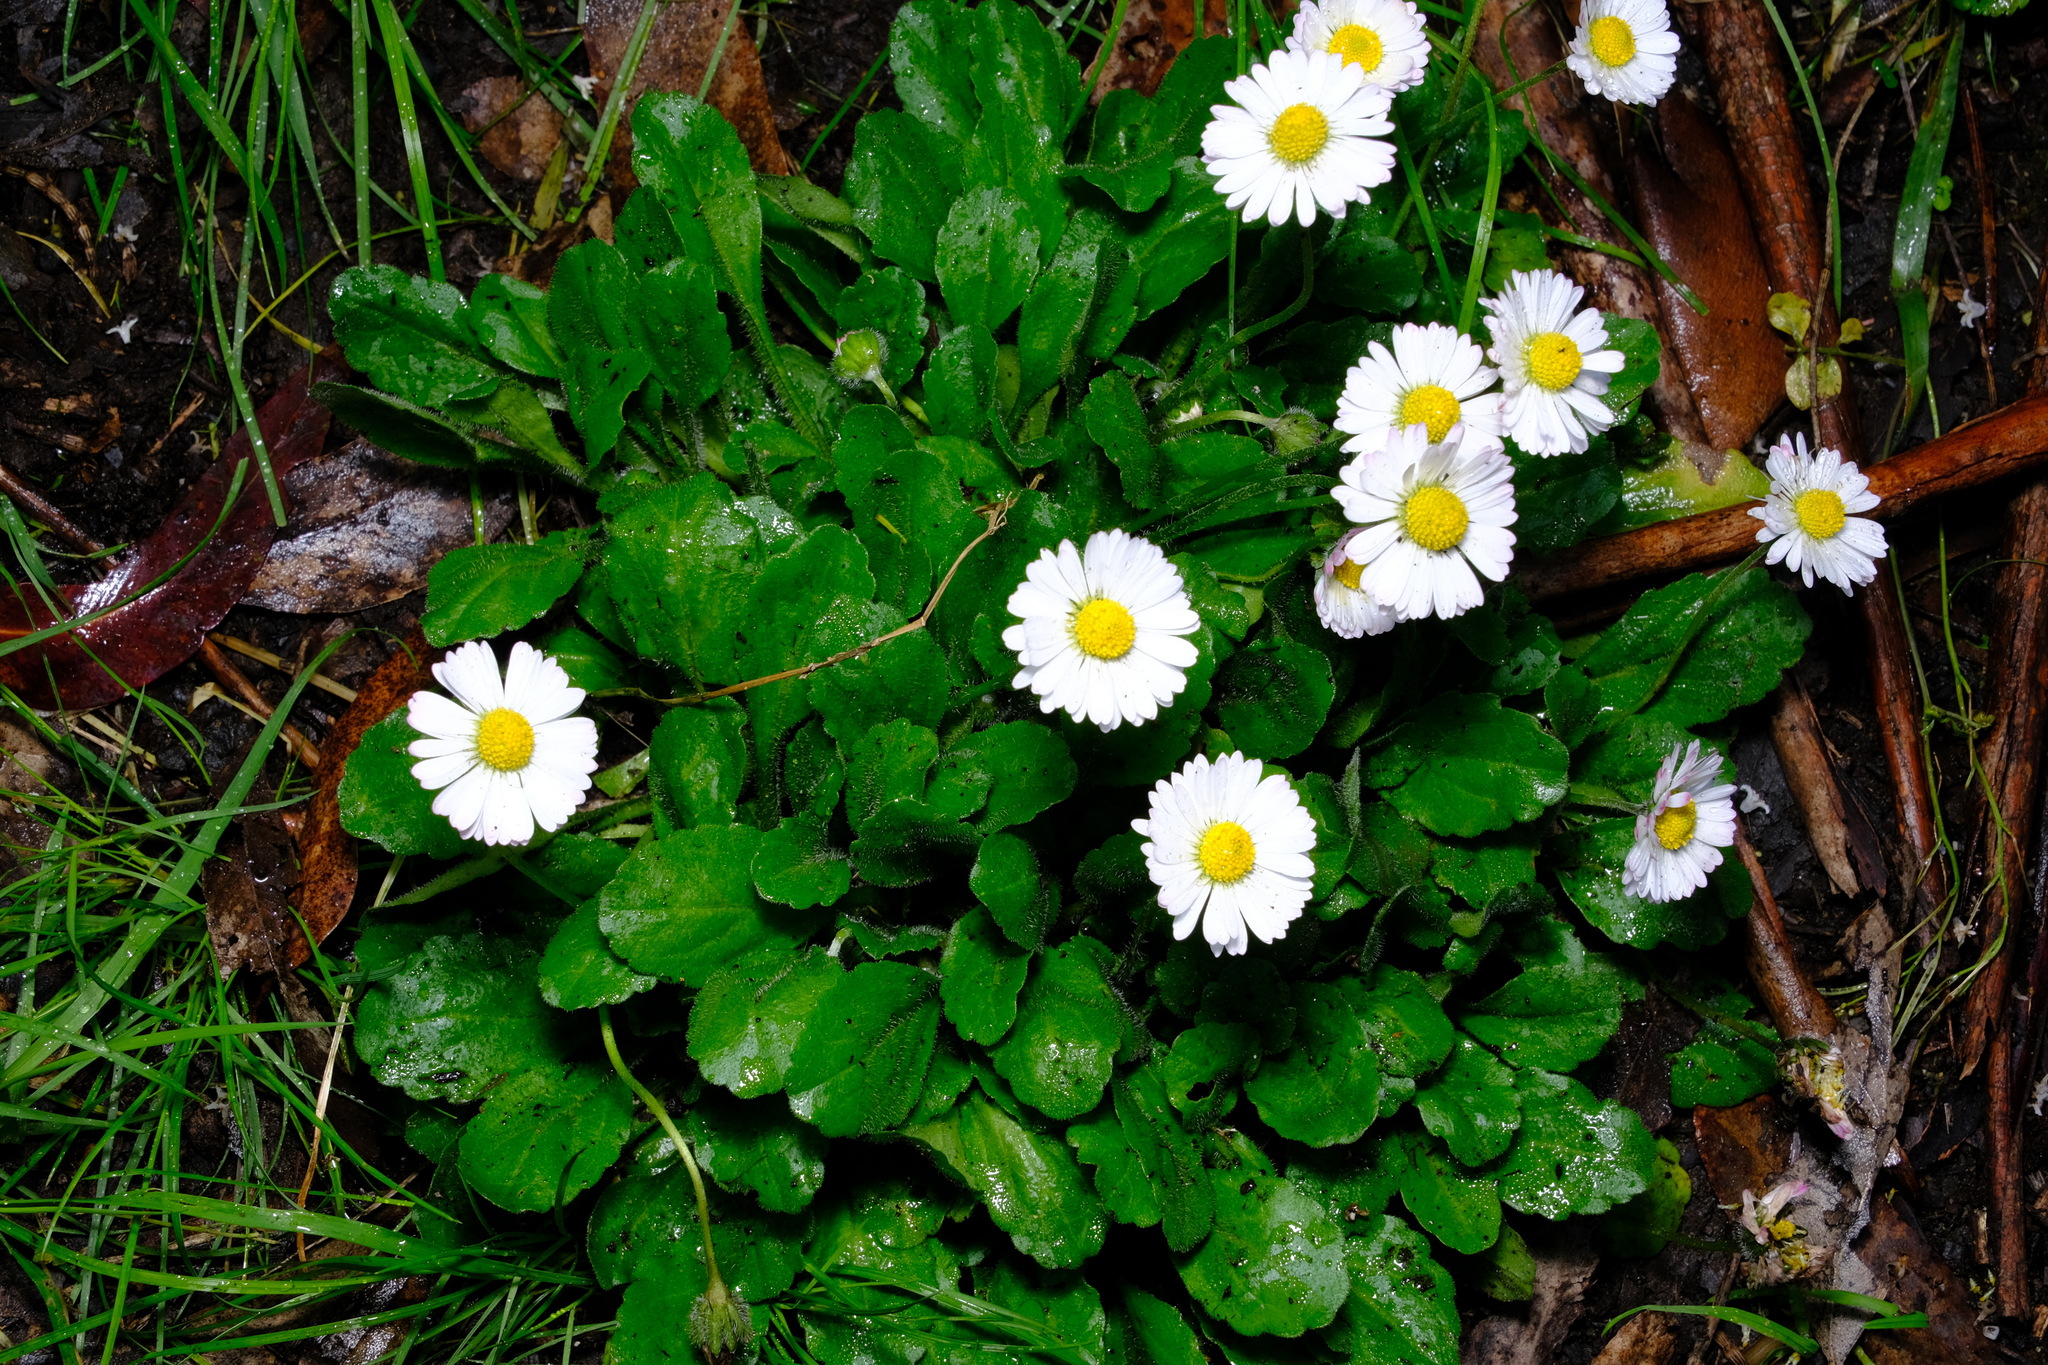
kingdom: Plantae
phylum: Tracheophyta
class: Magnoliopsida
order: Asterales
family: Asteraceae
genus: Bellis
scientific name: Bellis perennis
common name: Lawndaisy
